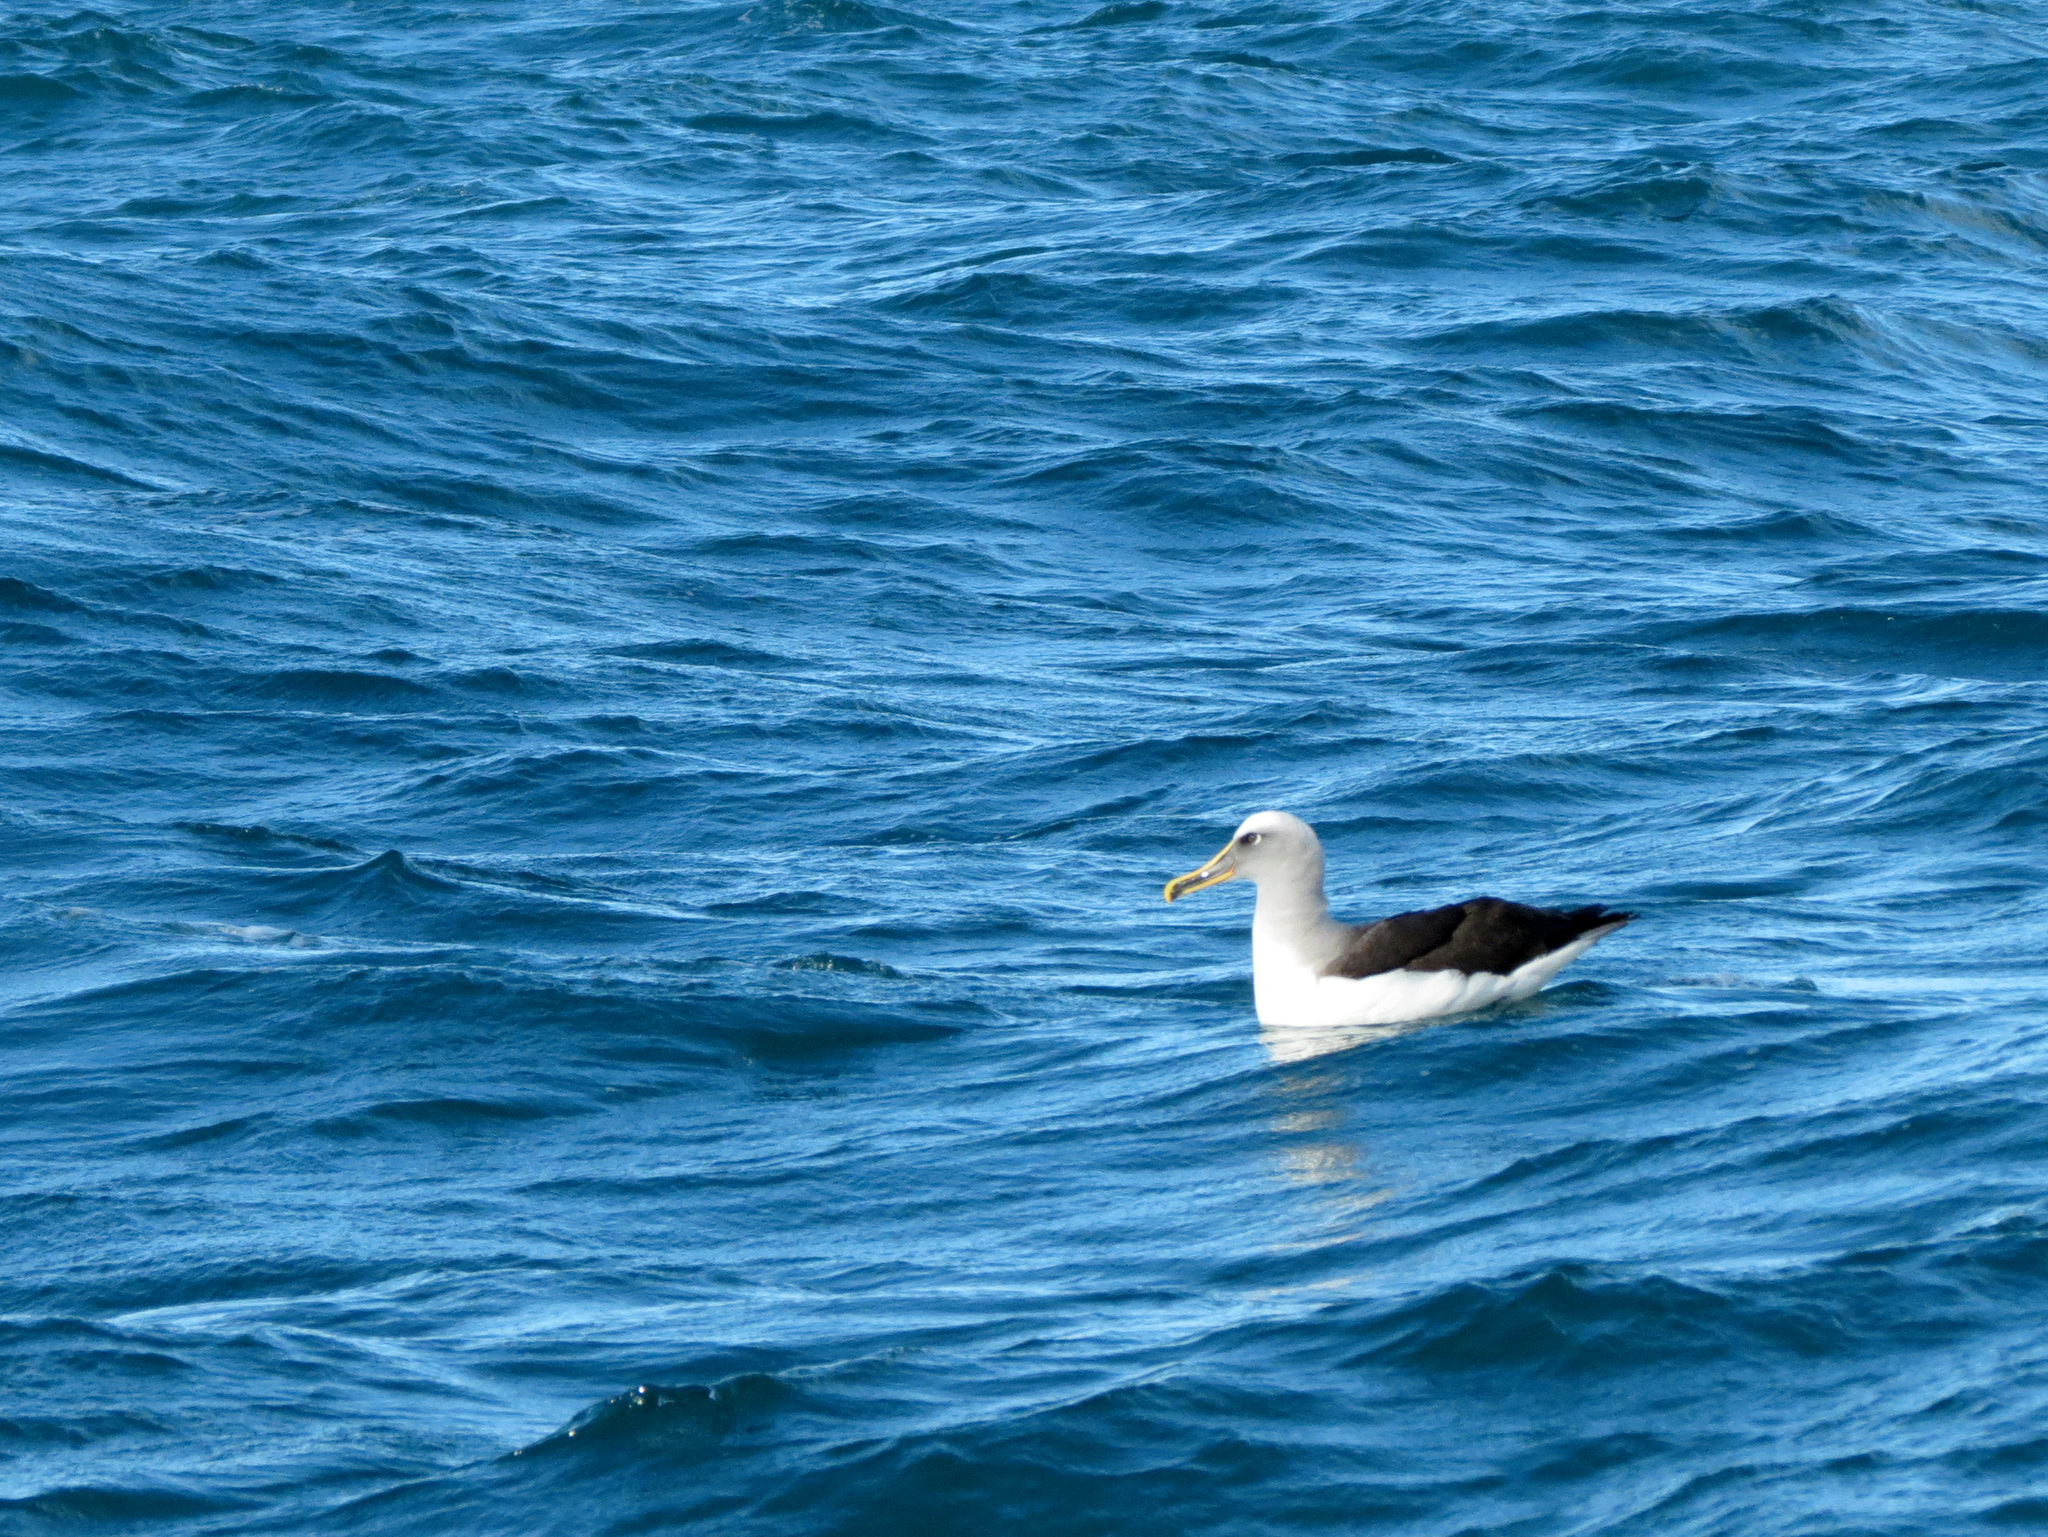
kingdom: Animalia
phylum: Chordata
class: Aves
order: Procellariiformes
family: Diomedeidae
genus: Thalassarche
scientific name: Thalassarche bulleri
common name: Buller's albatross
